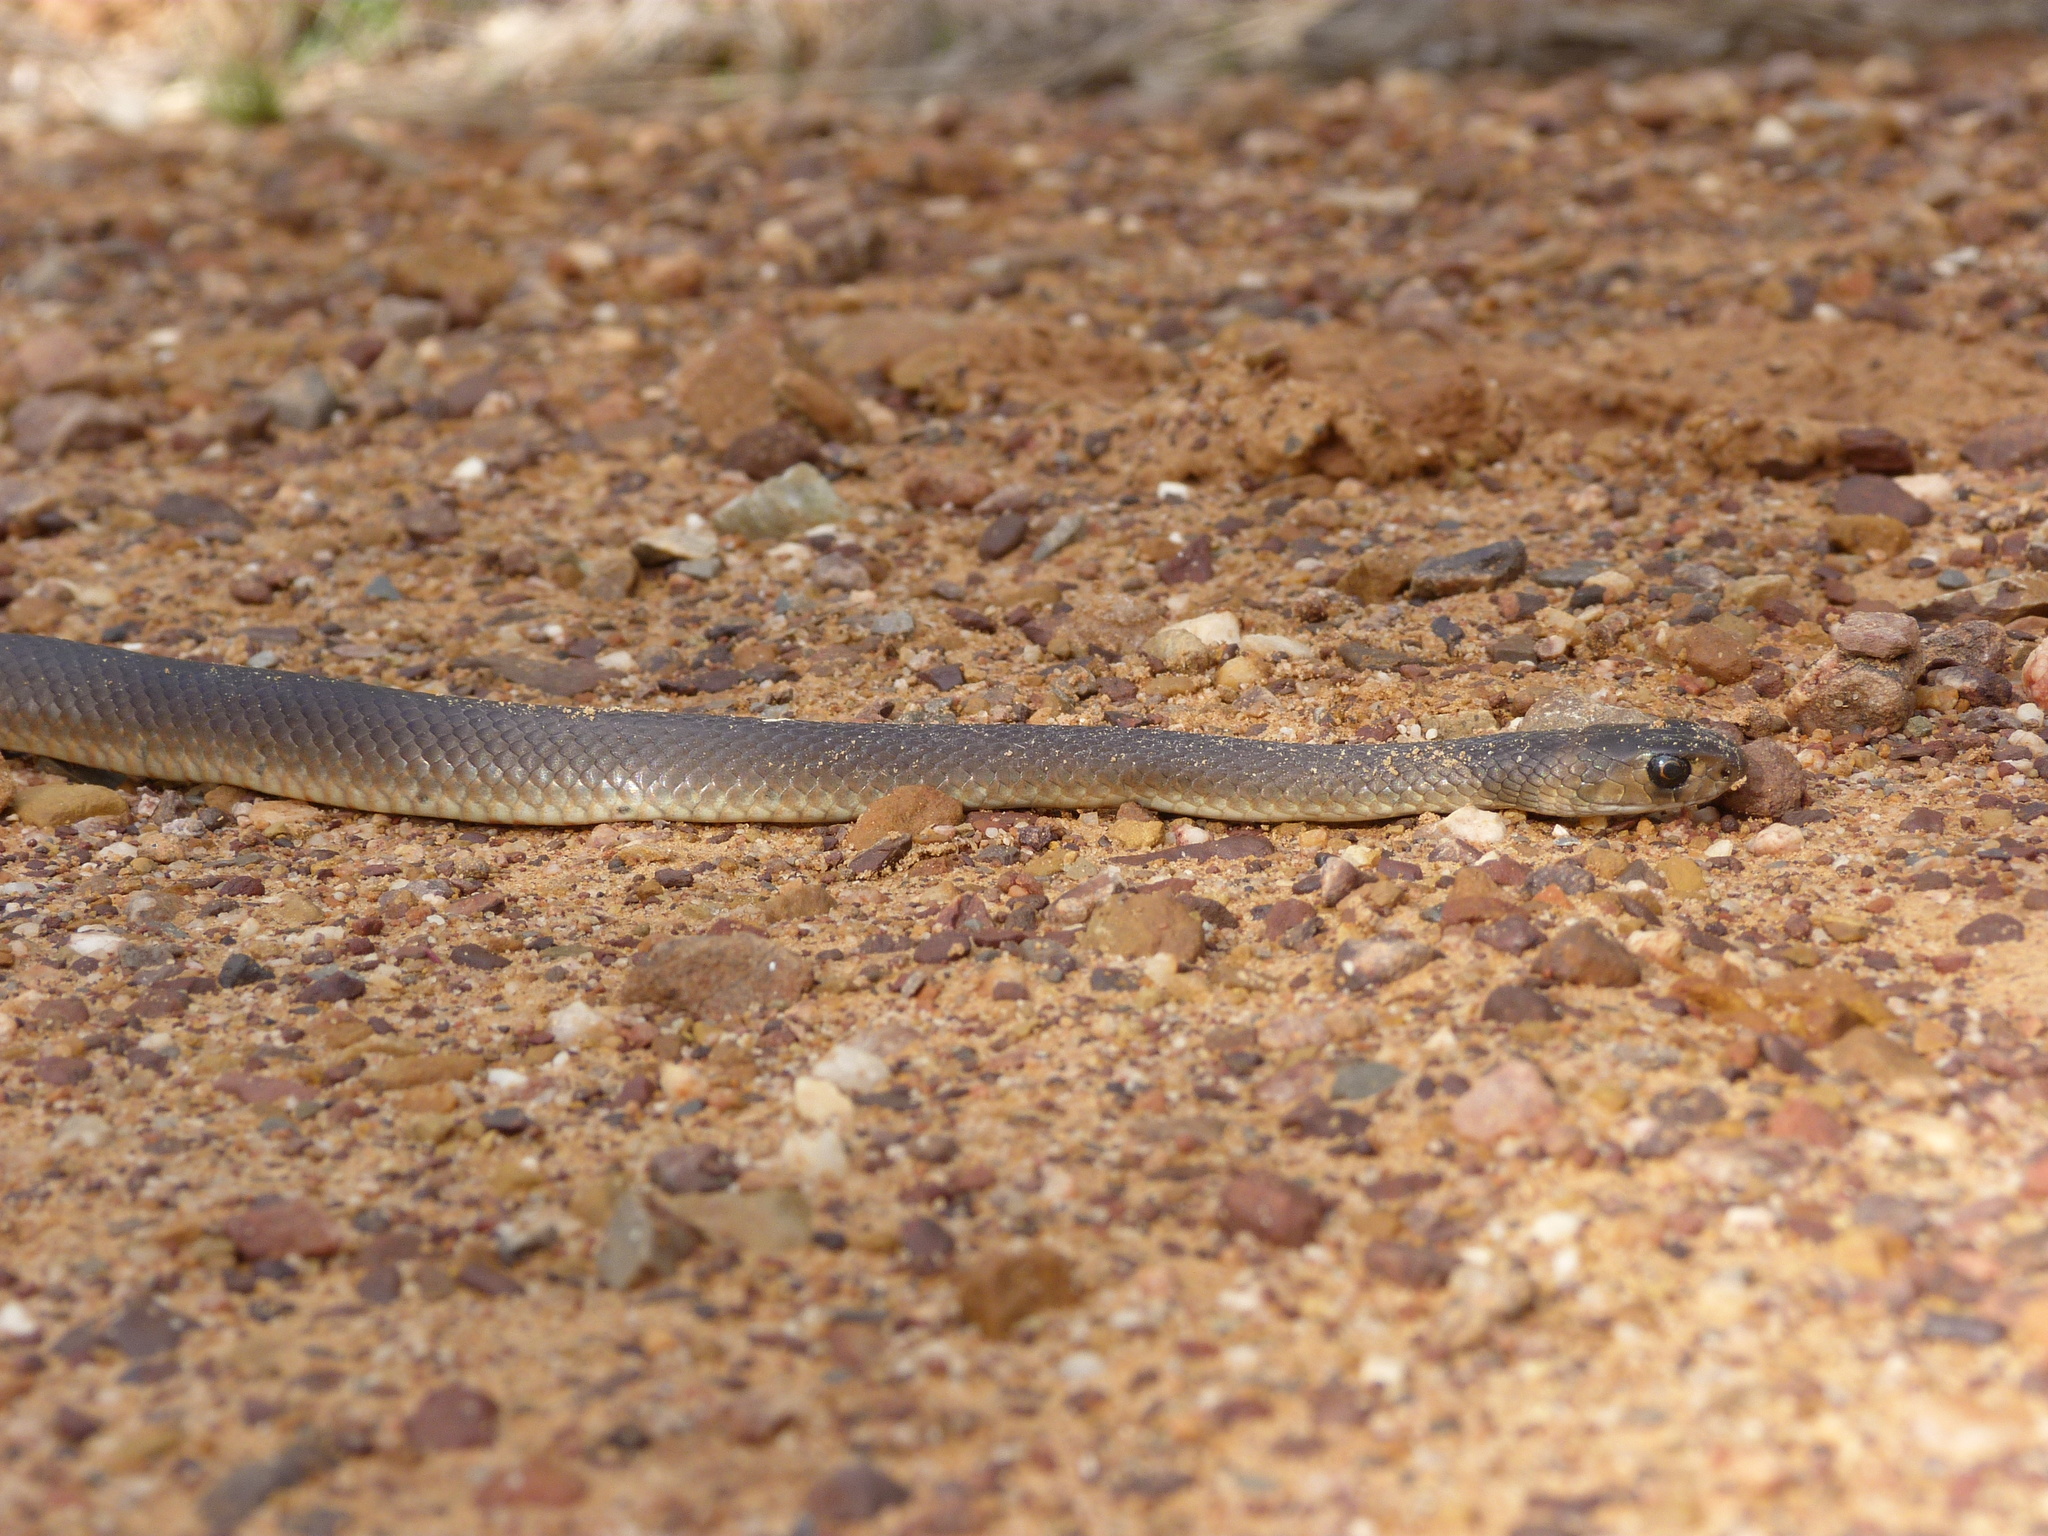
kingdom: Animalia
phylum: Chordata
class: Squamata
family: Elapidae
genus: Pseudonaja
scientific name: Pseudonaja textilis
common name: Eastern brown snake
